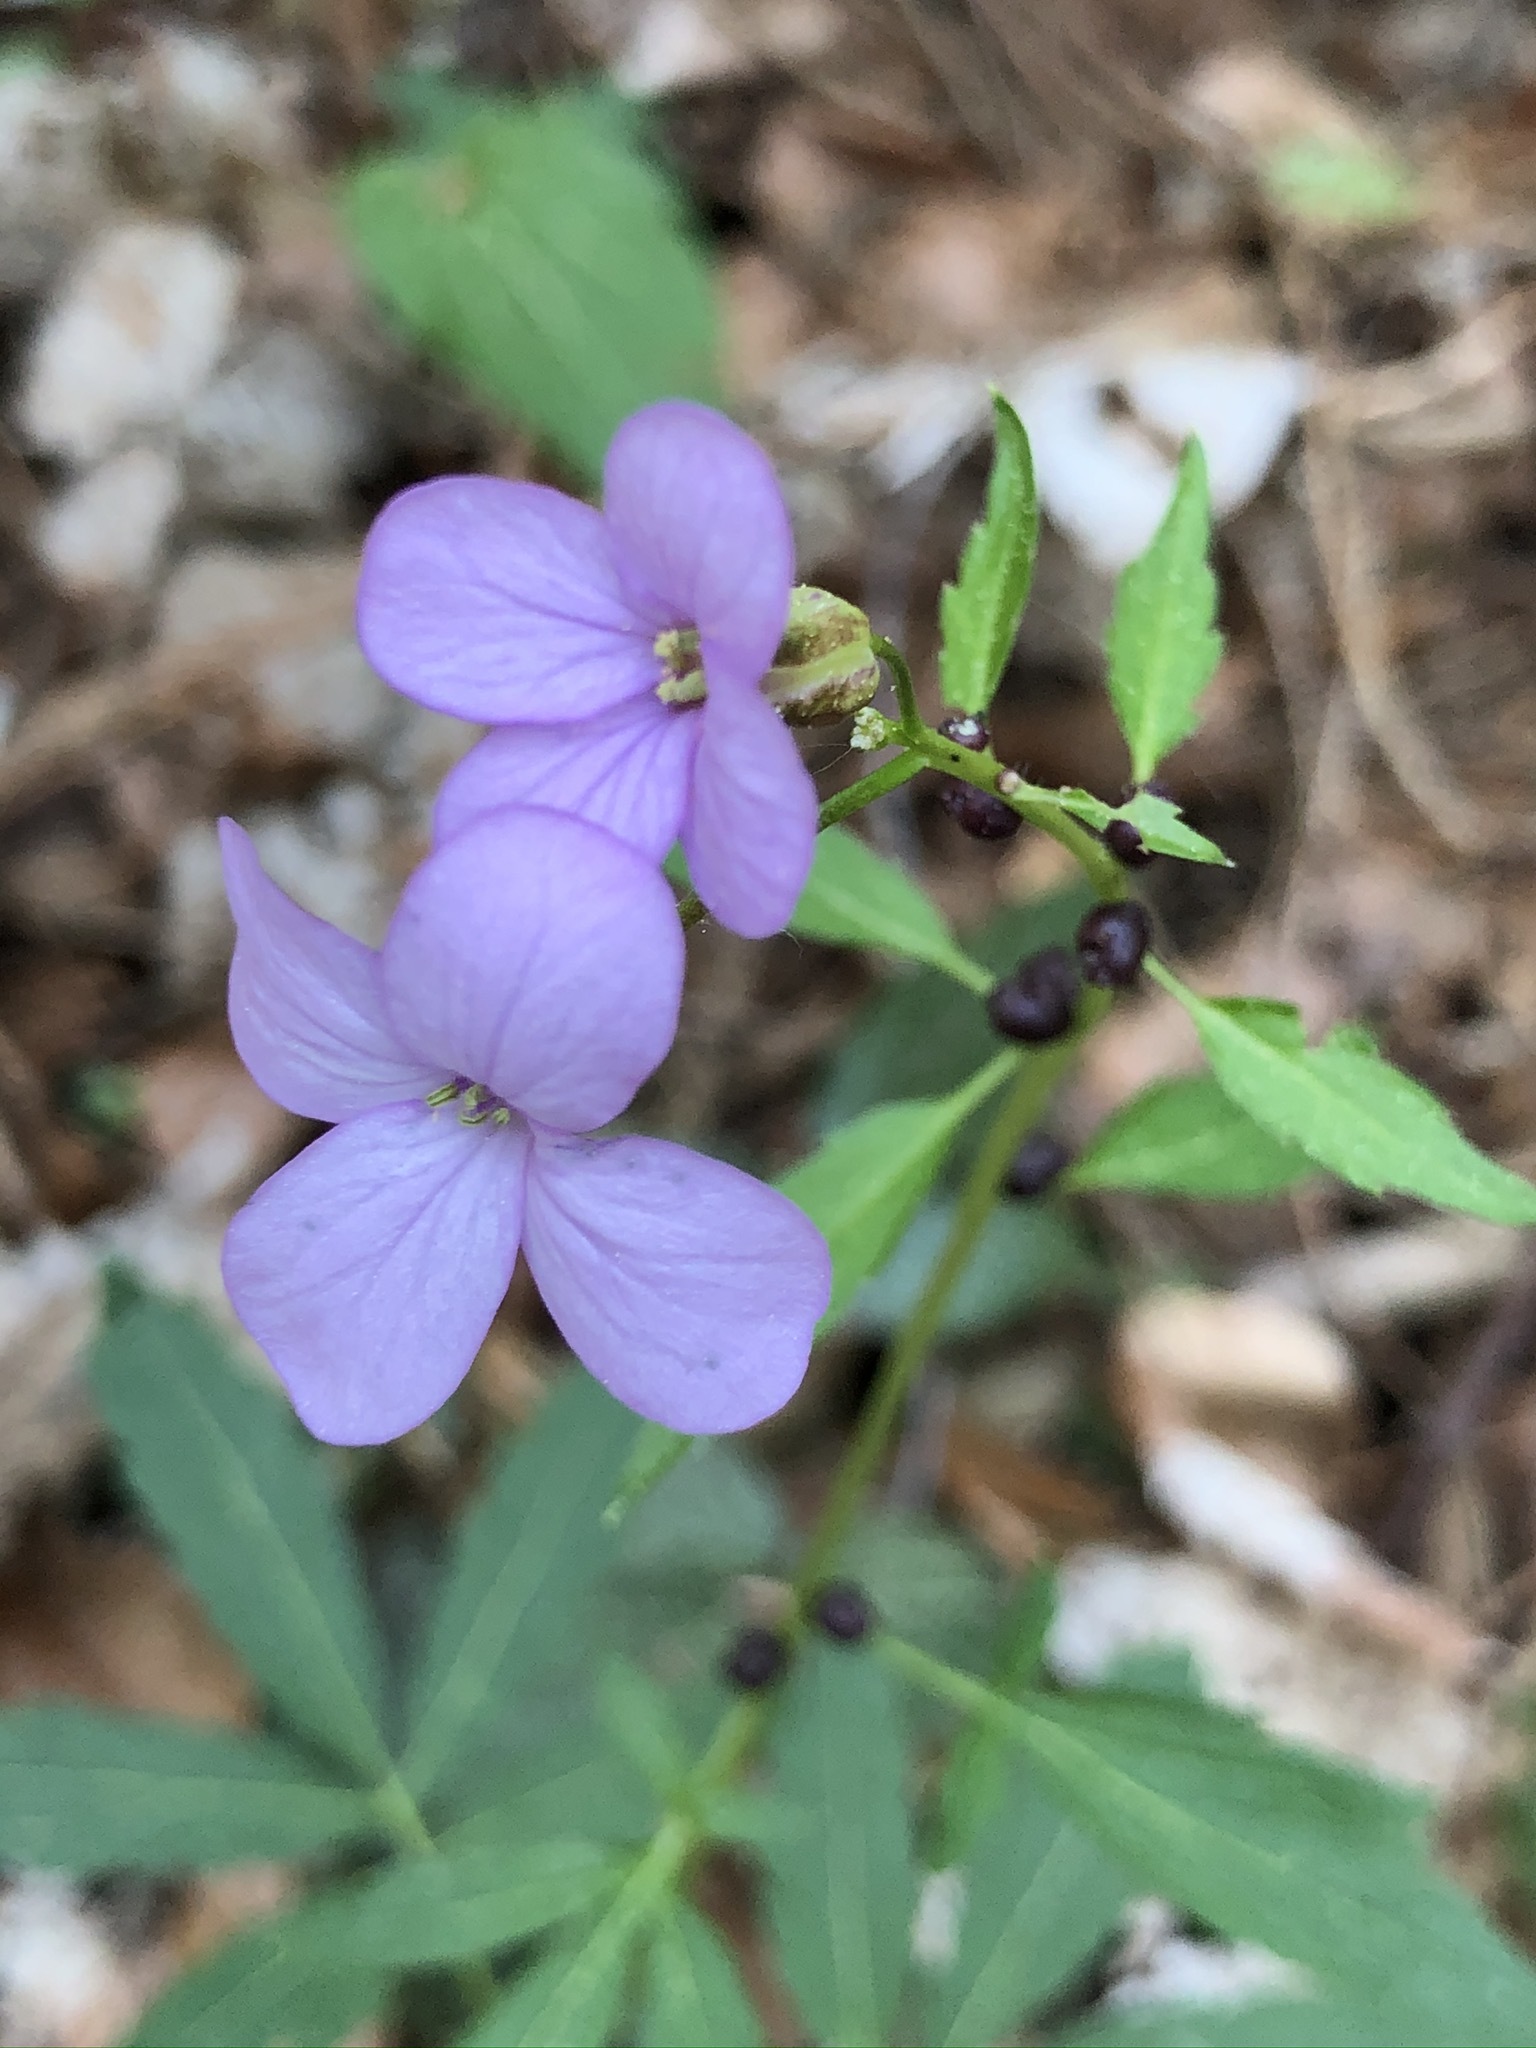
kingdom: Plantae
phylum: Tracheophyta
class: Magnoliopsida
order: Brassicales
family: Brassicaceae
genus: Cardamine
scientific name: Cardamine bulbifera
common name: Coralroot bittercress
